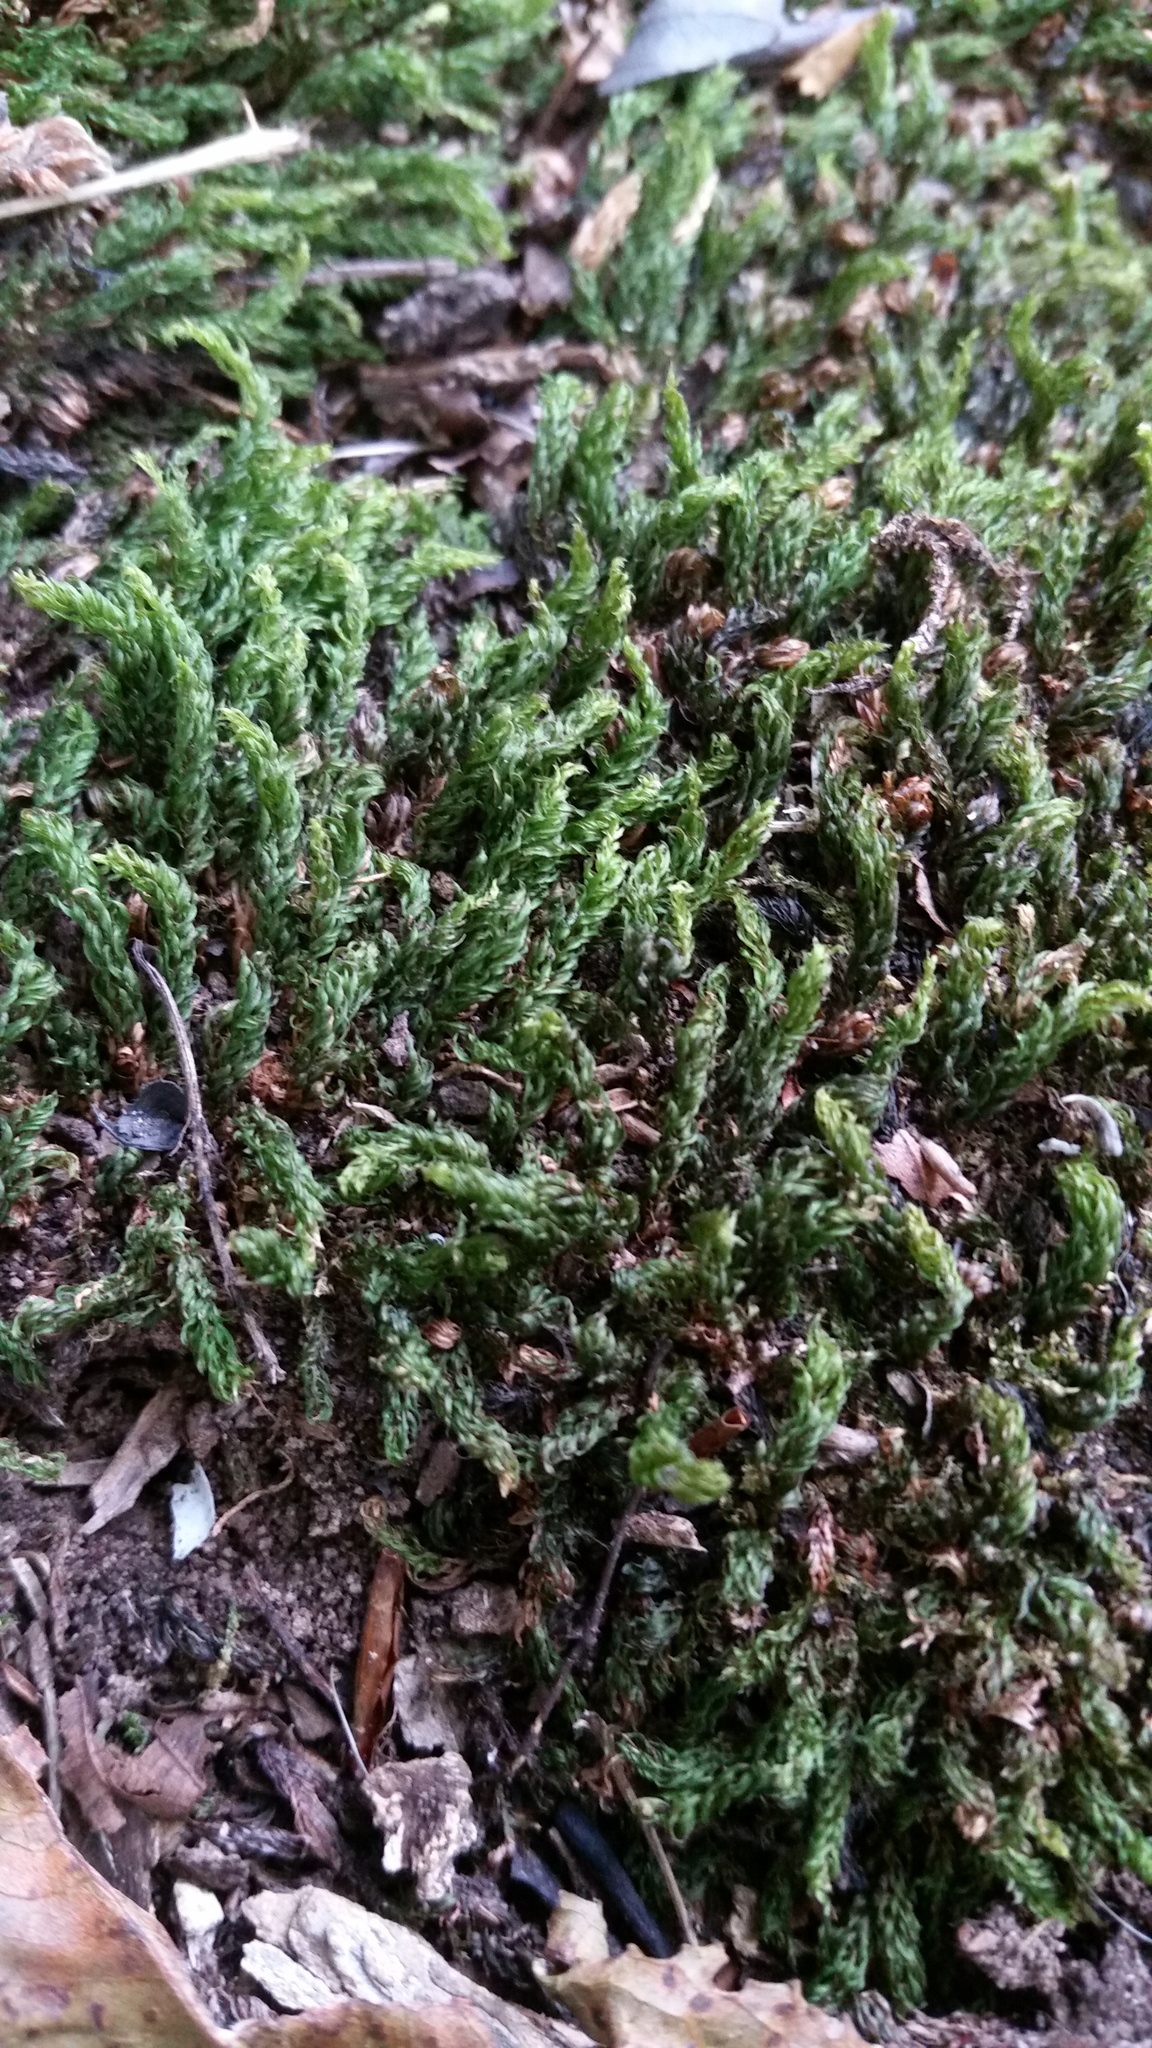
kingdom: Plantae
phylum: Bryophyta
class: Bryopsida
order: Bryales
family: Mniaceae
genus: Mnium
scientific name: Mnium hornum
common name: Swan's-neck leafy moss
